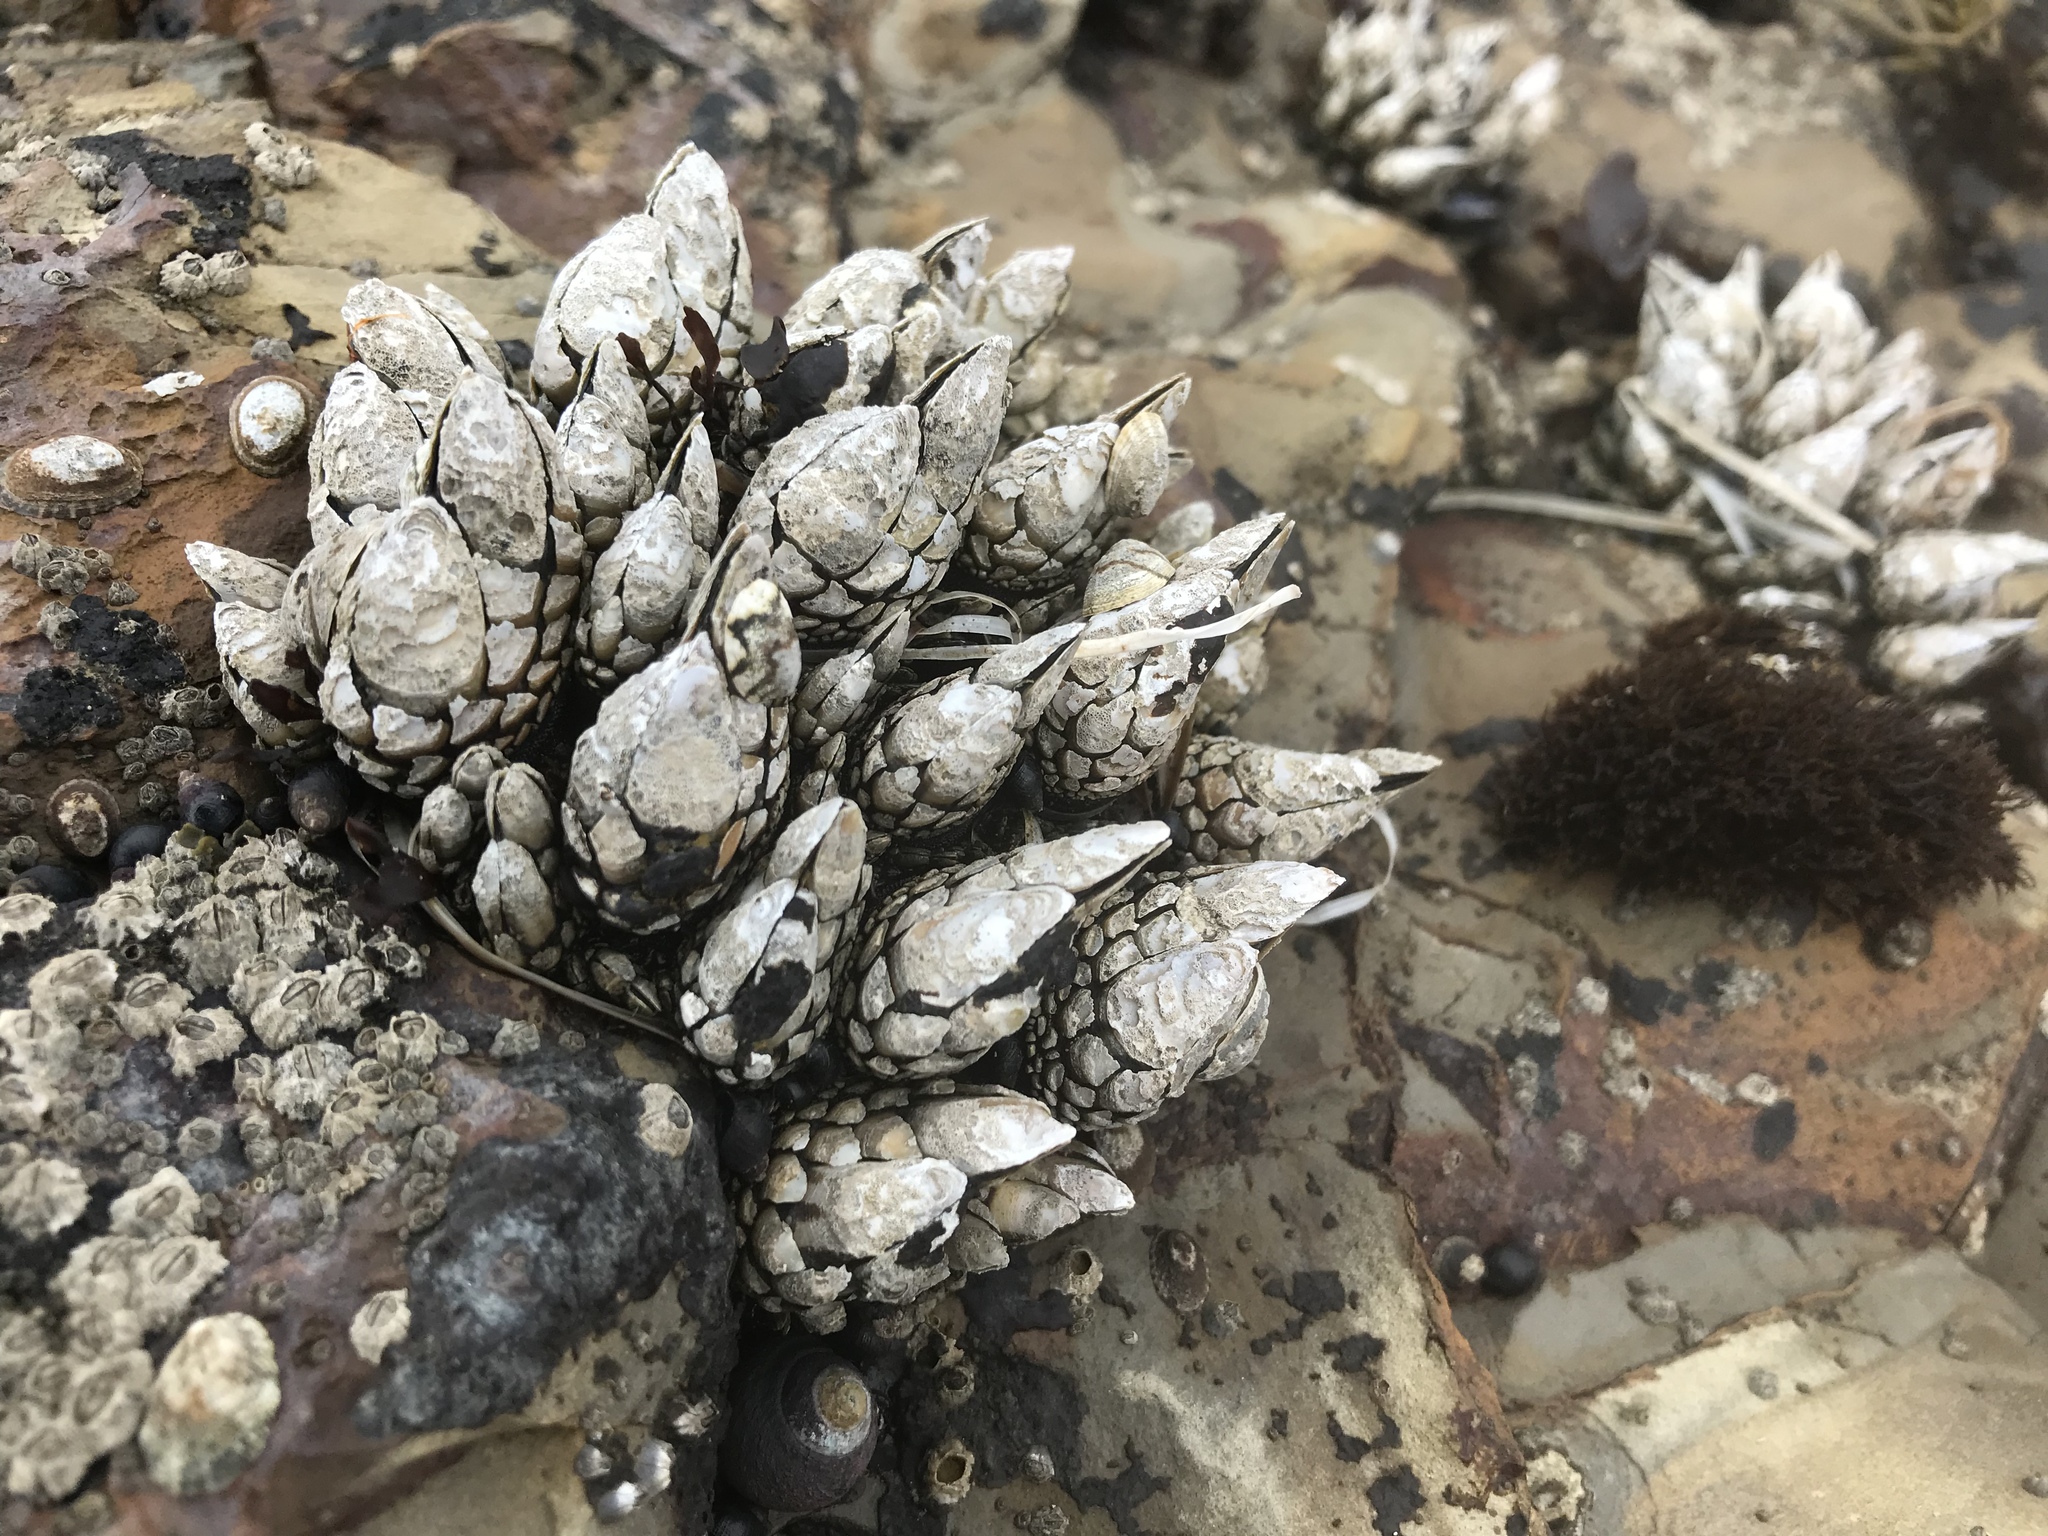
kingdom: Animalia
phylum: Arthropoda
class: Maxillopoda
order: Pedunculata
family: Pollicipedidae
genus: Pollicipes
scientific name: Pollicipes polymerus
